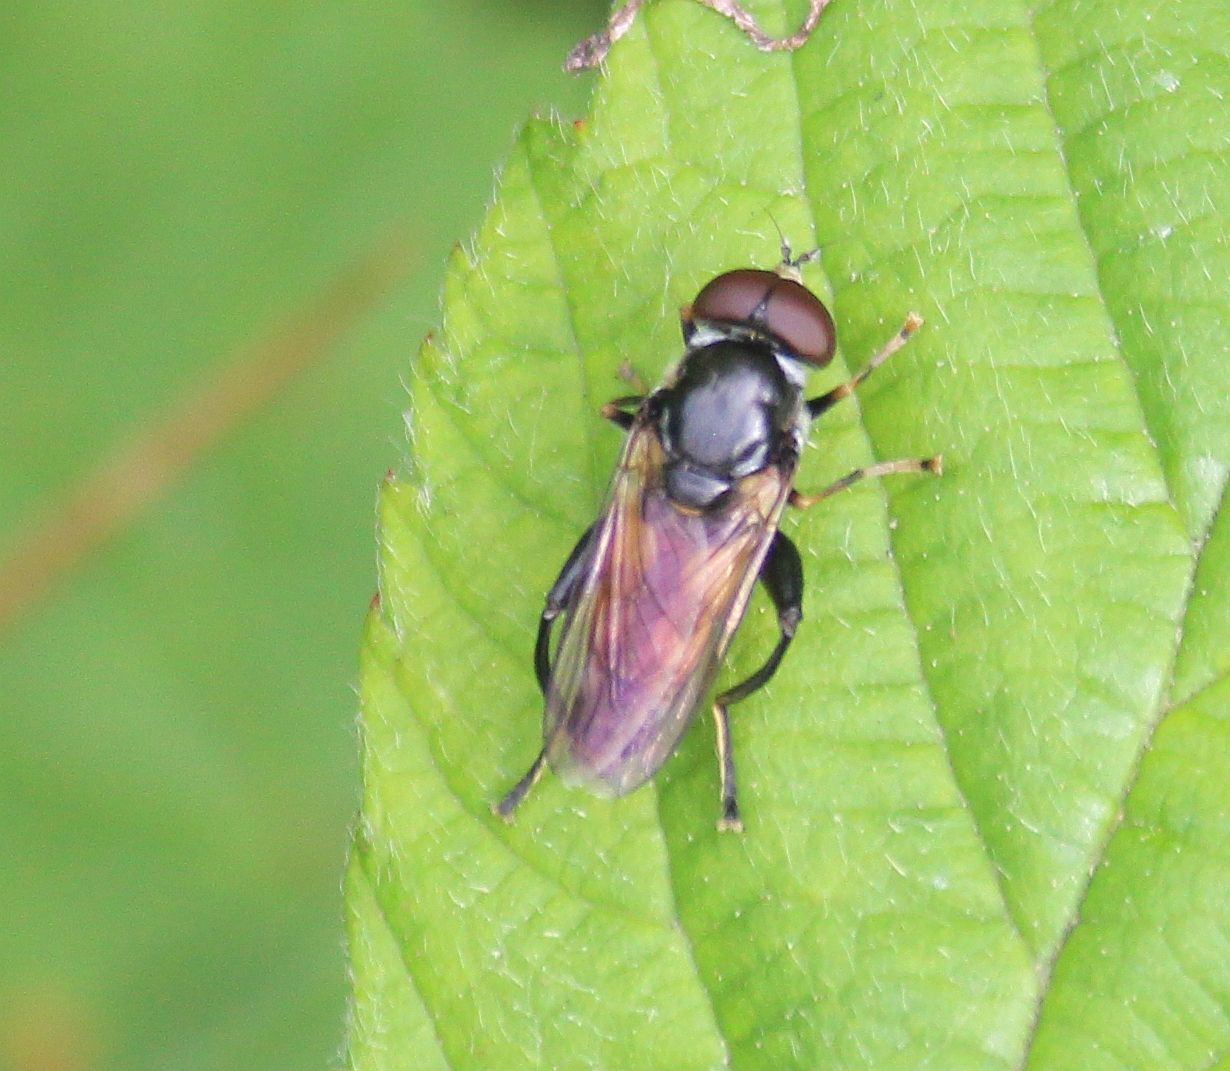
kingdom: Animalia
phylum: Arthropoda
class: Insecta
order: Diptera
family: Syrphidae
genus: Tropidia
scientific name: Tropidia scita
